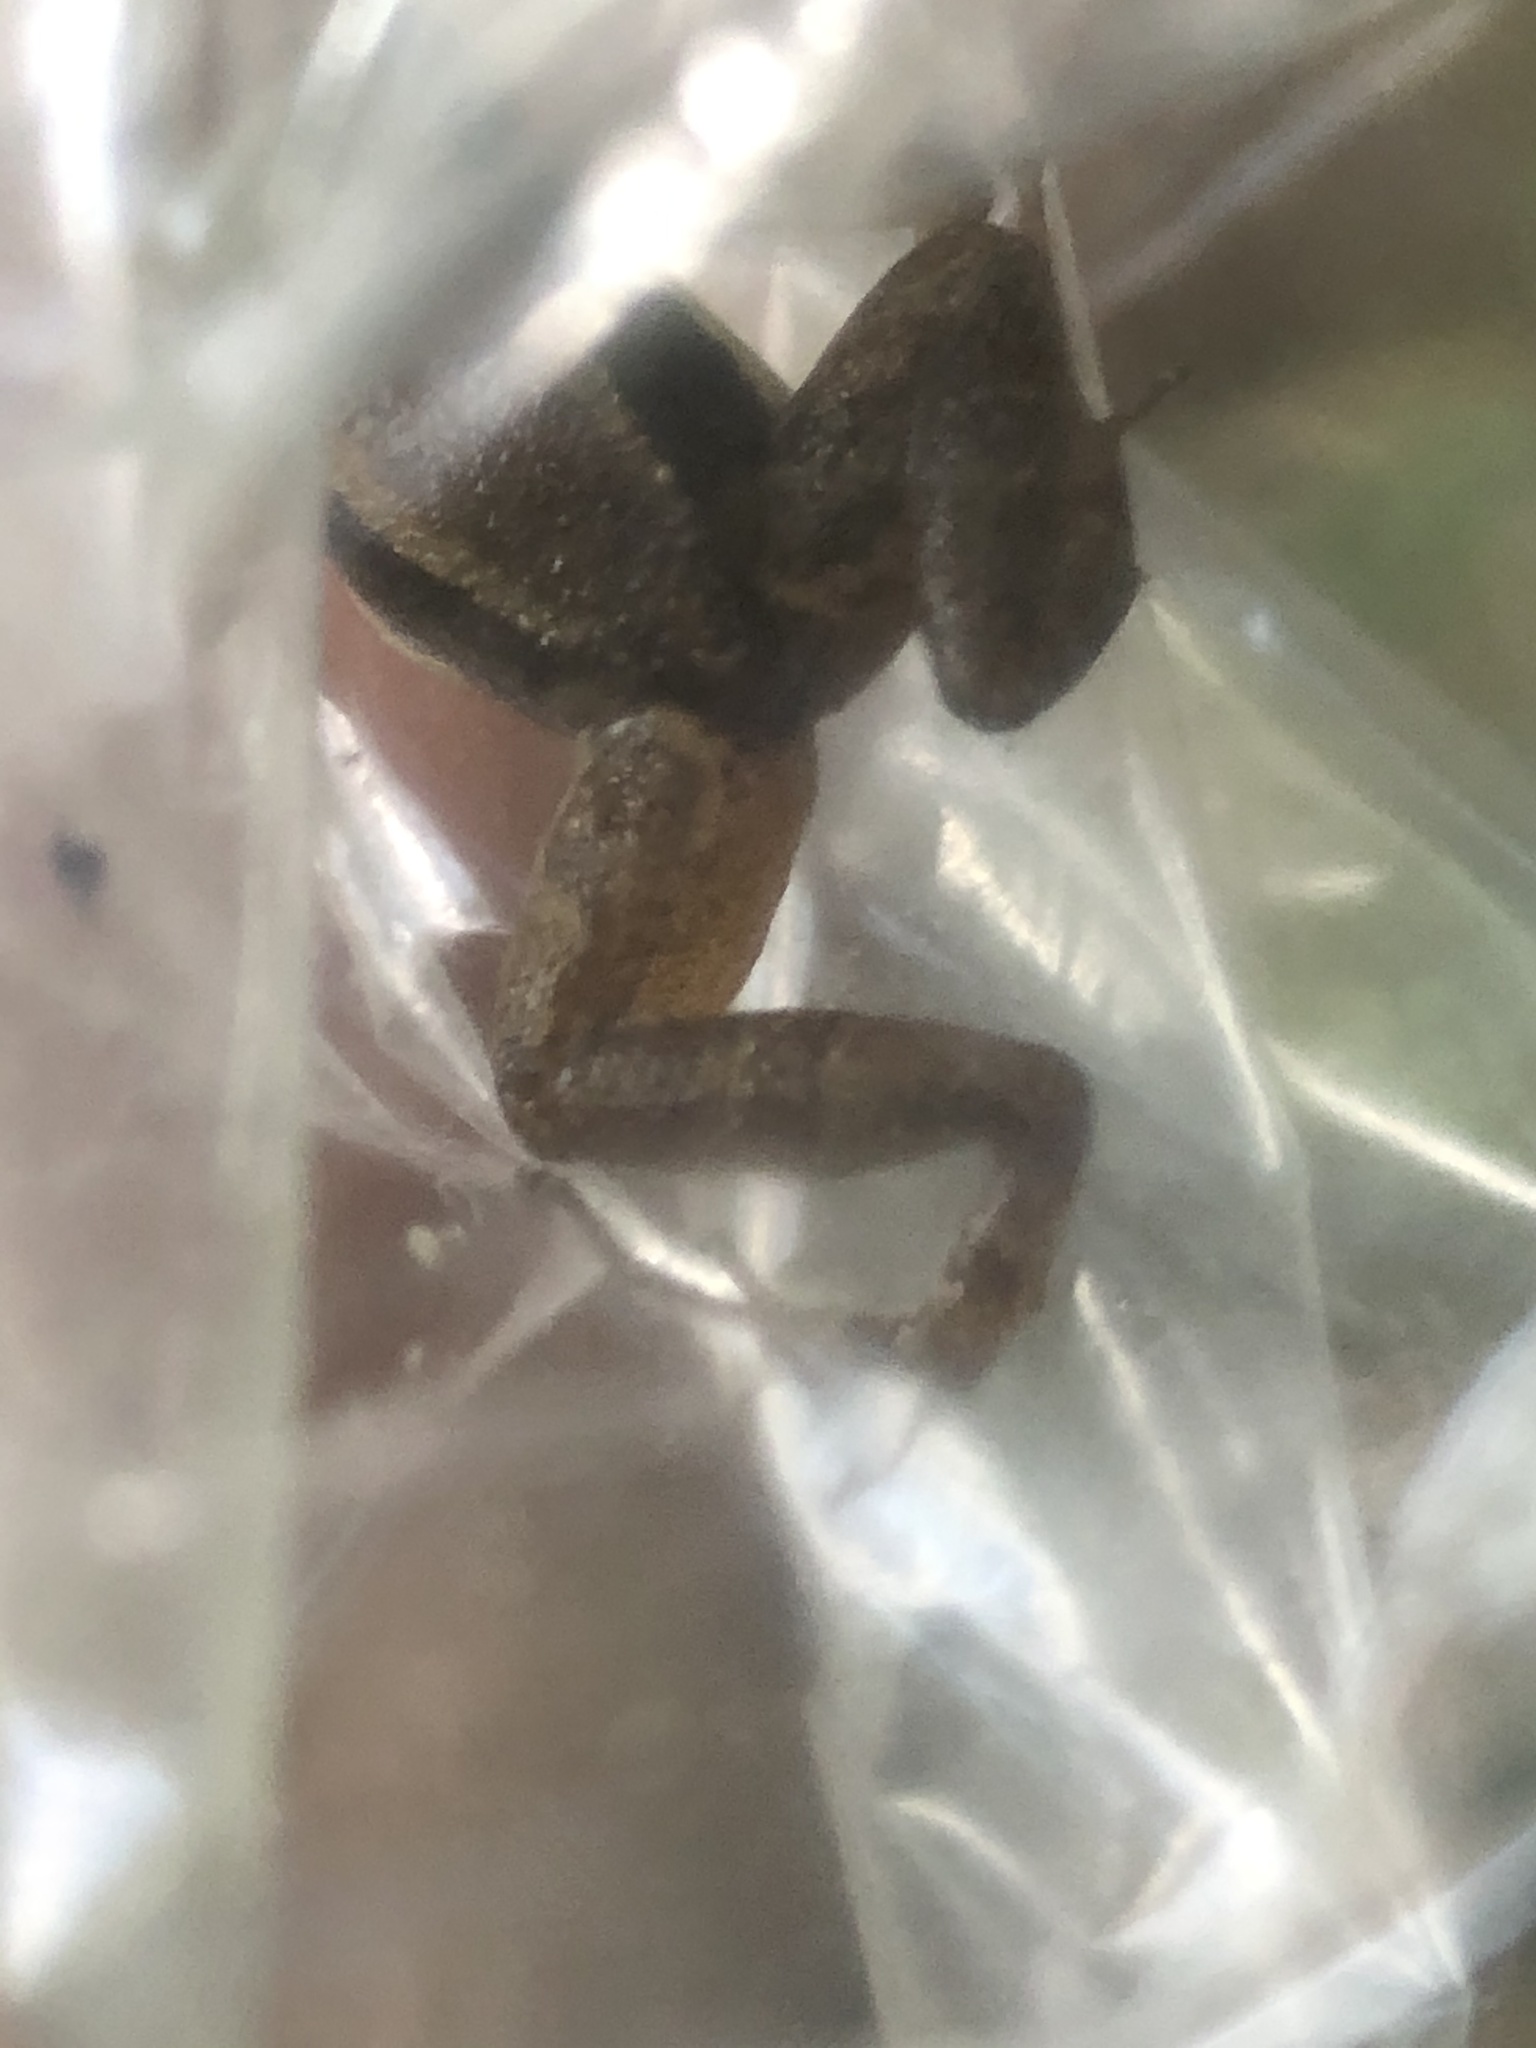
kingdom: Animalia
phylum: Chordata
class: Amphibia
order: Anura
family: Aromobatidae
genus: Allobates
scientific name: Allobates conspicuus
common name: Manu rocket frog
